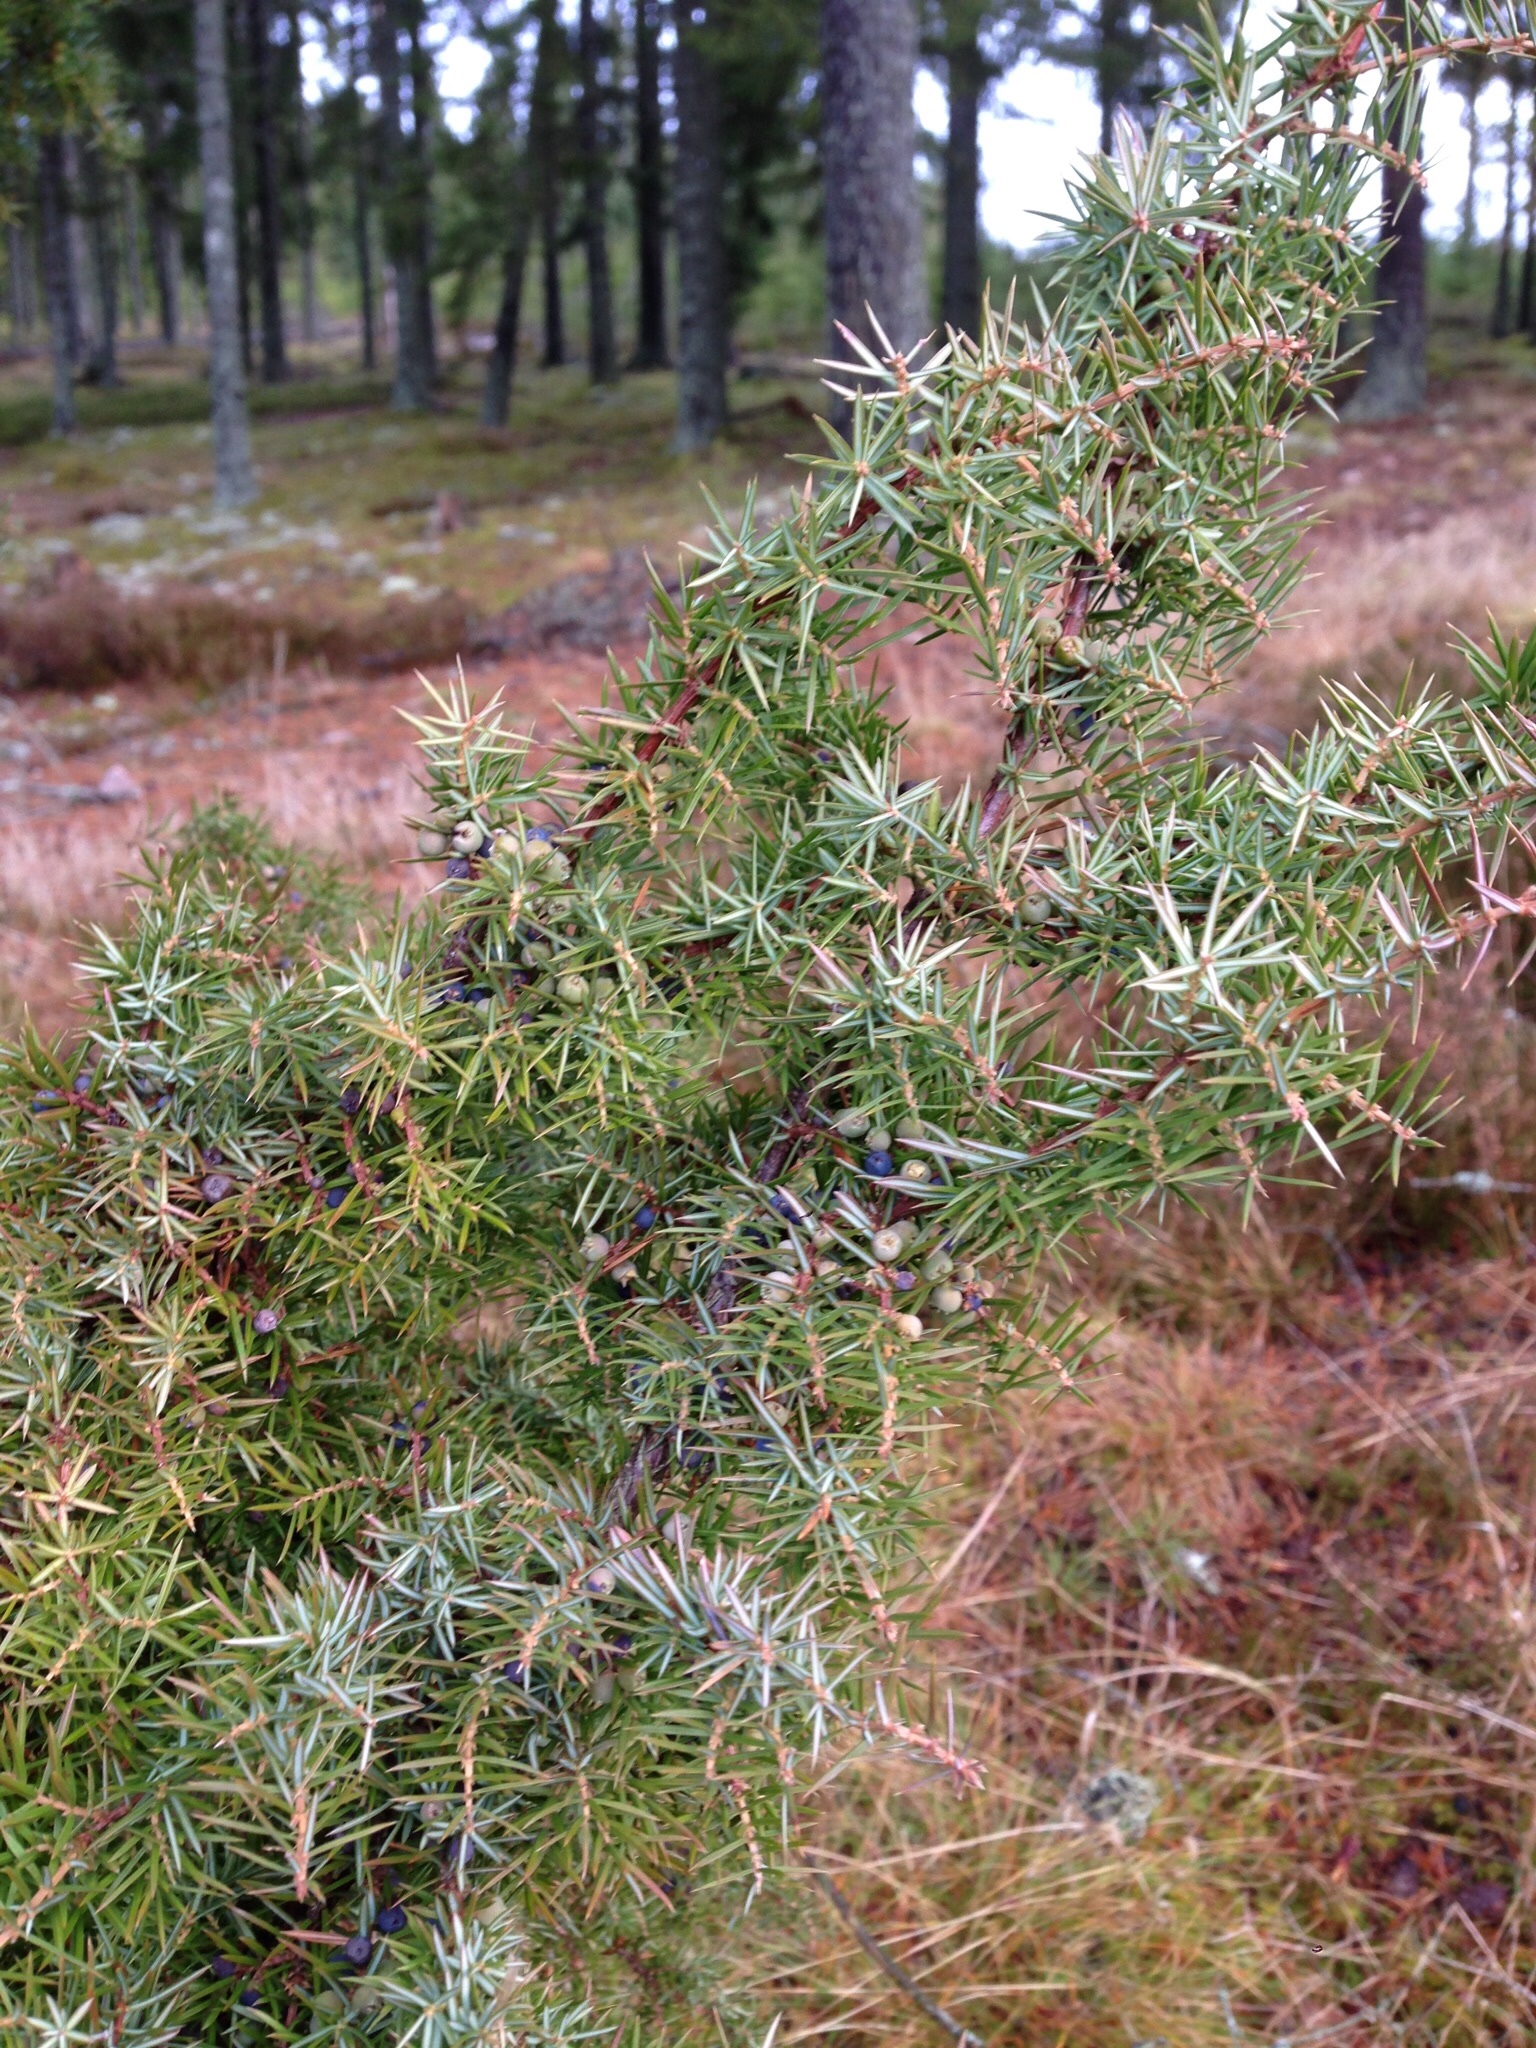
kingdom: Plantae
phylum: Tracheophyta
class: Pinopsida
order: Pinales
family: Cupressaceae
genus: Juniperus
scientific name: Juniperus communis
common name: Common juniper
